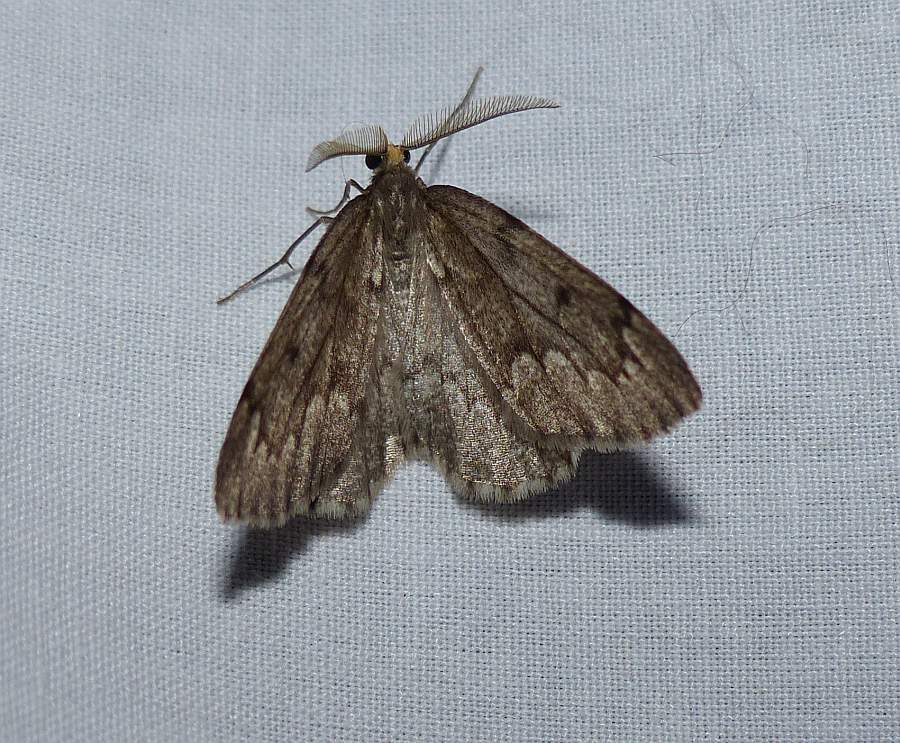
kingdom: Animalia
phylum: Arthropoda
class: Insecta
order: Lepidoptera
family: Geometridae
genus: Nepytia
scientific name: Nepytia canosaria
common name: False hemlock looper
